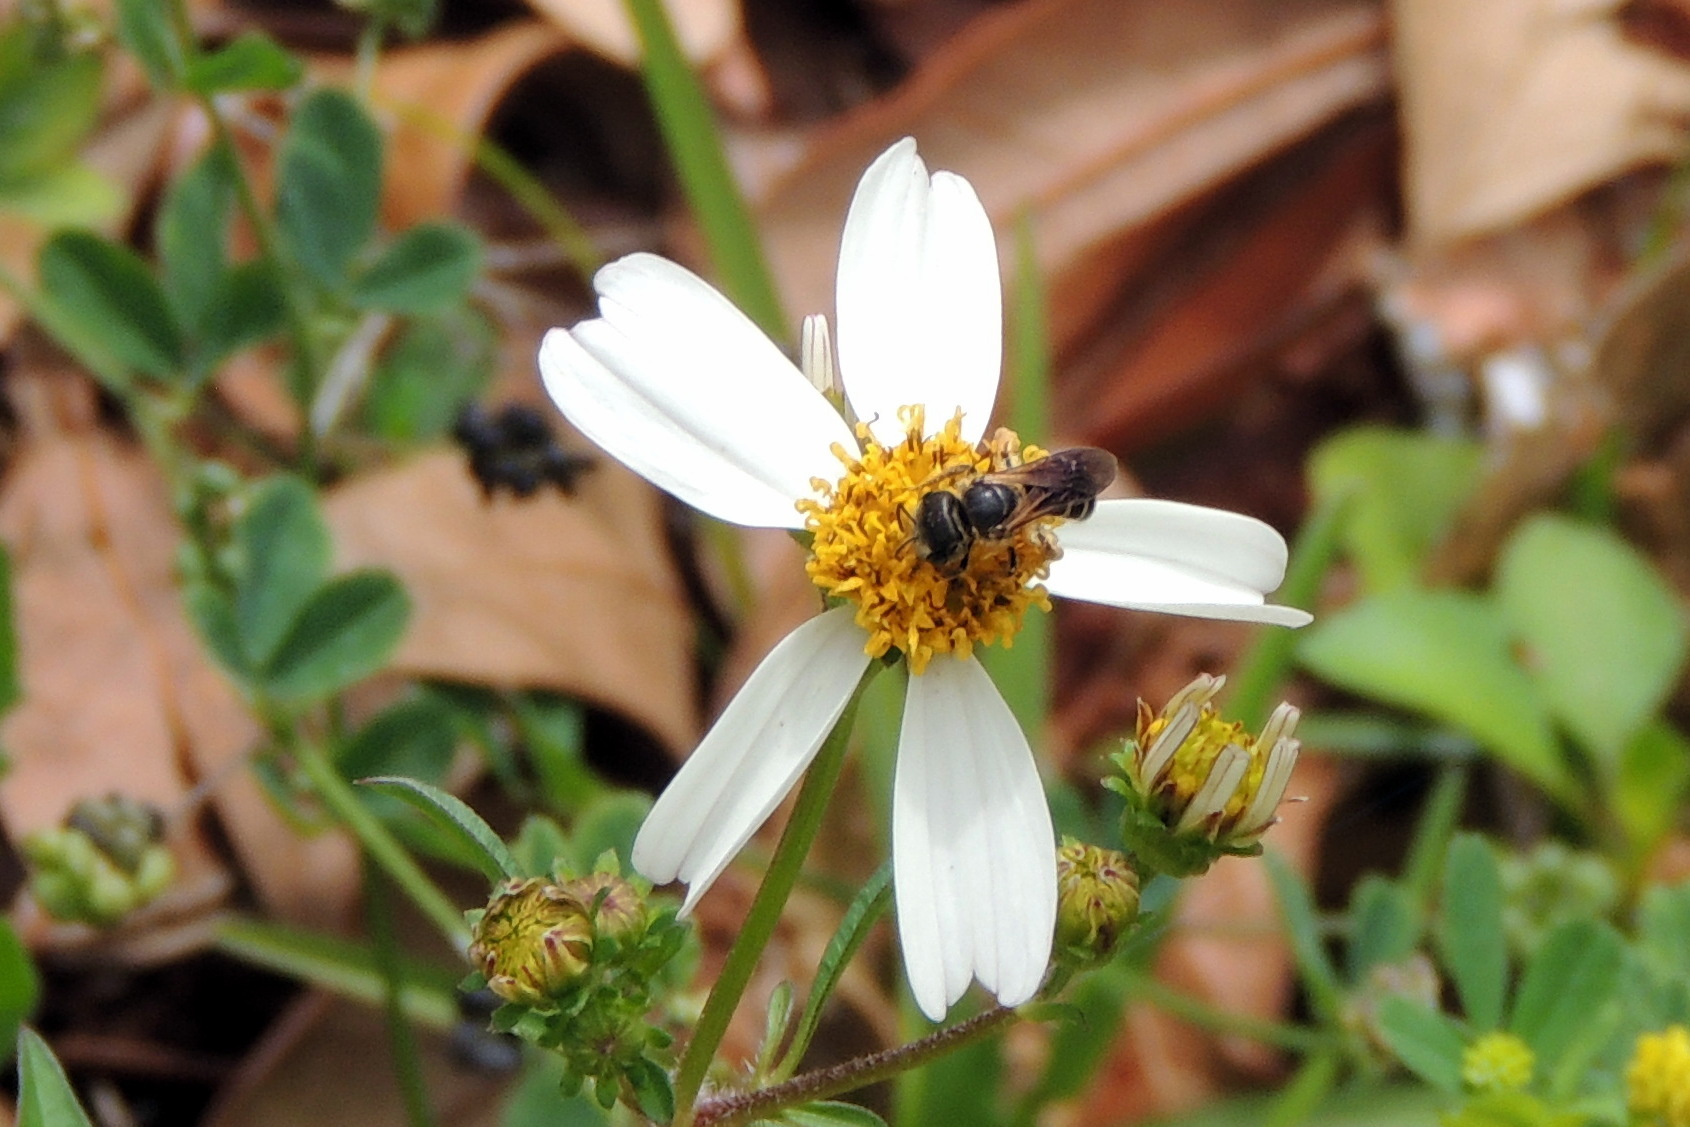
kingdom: Plantae
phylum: Tracheophyta
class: Magnoliopsida
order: Asterales
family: Asteraceae
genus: Bidens
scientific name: Bidens alba
